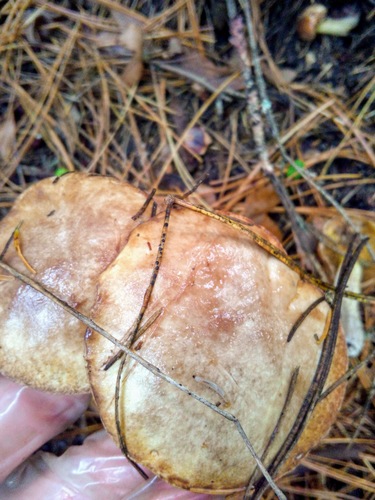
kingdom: Fungi
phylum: Basidiomycota
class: Agaricomycetes
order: Boletales
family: Suillaceae
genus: Suillus
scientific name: Suillus placidus
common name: Slippery white bolete
